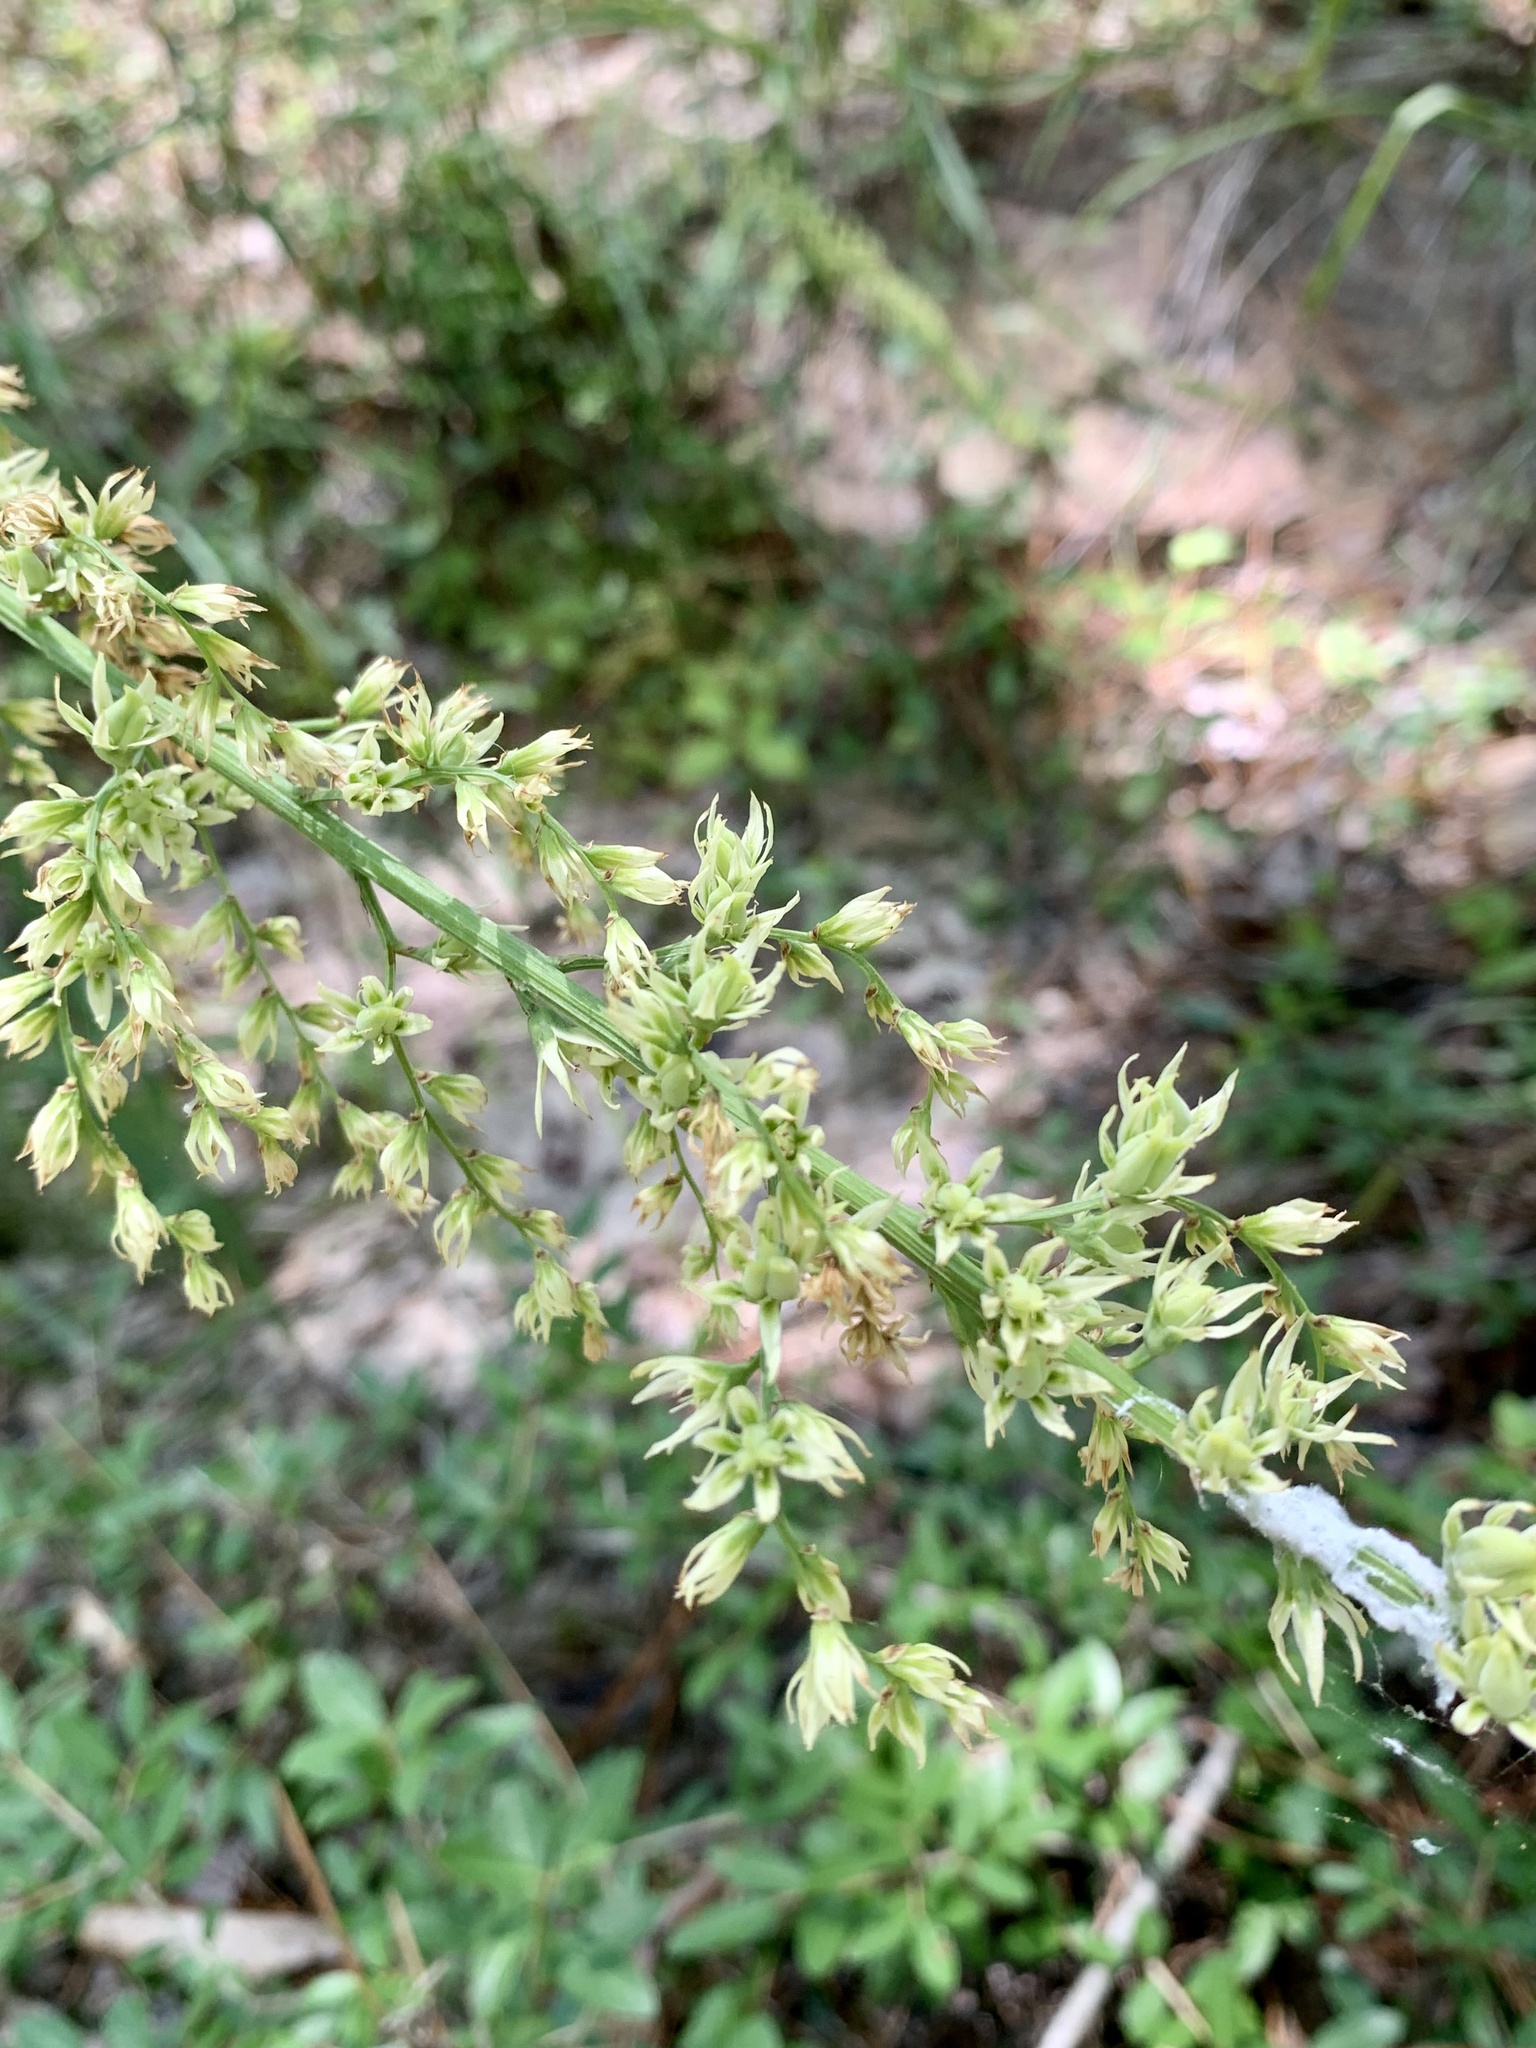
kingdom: Plantae
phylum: Tracheophyta
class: Liliopsida
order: Liliales
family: Melanthiaceae
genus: Stenanthium
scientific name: Stenanthium gramineum
